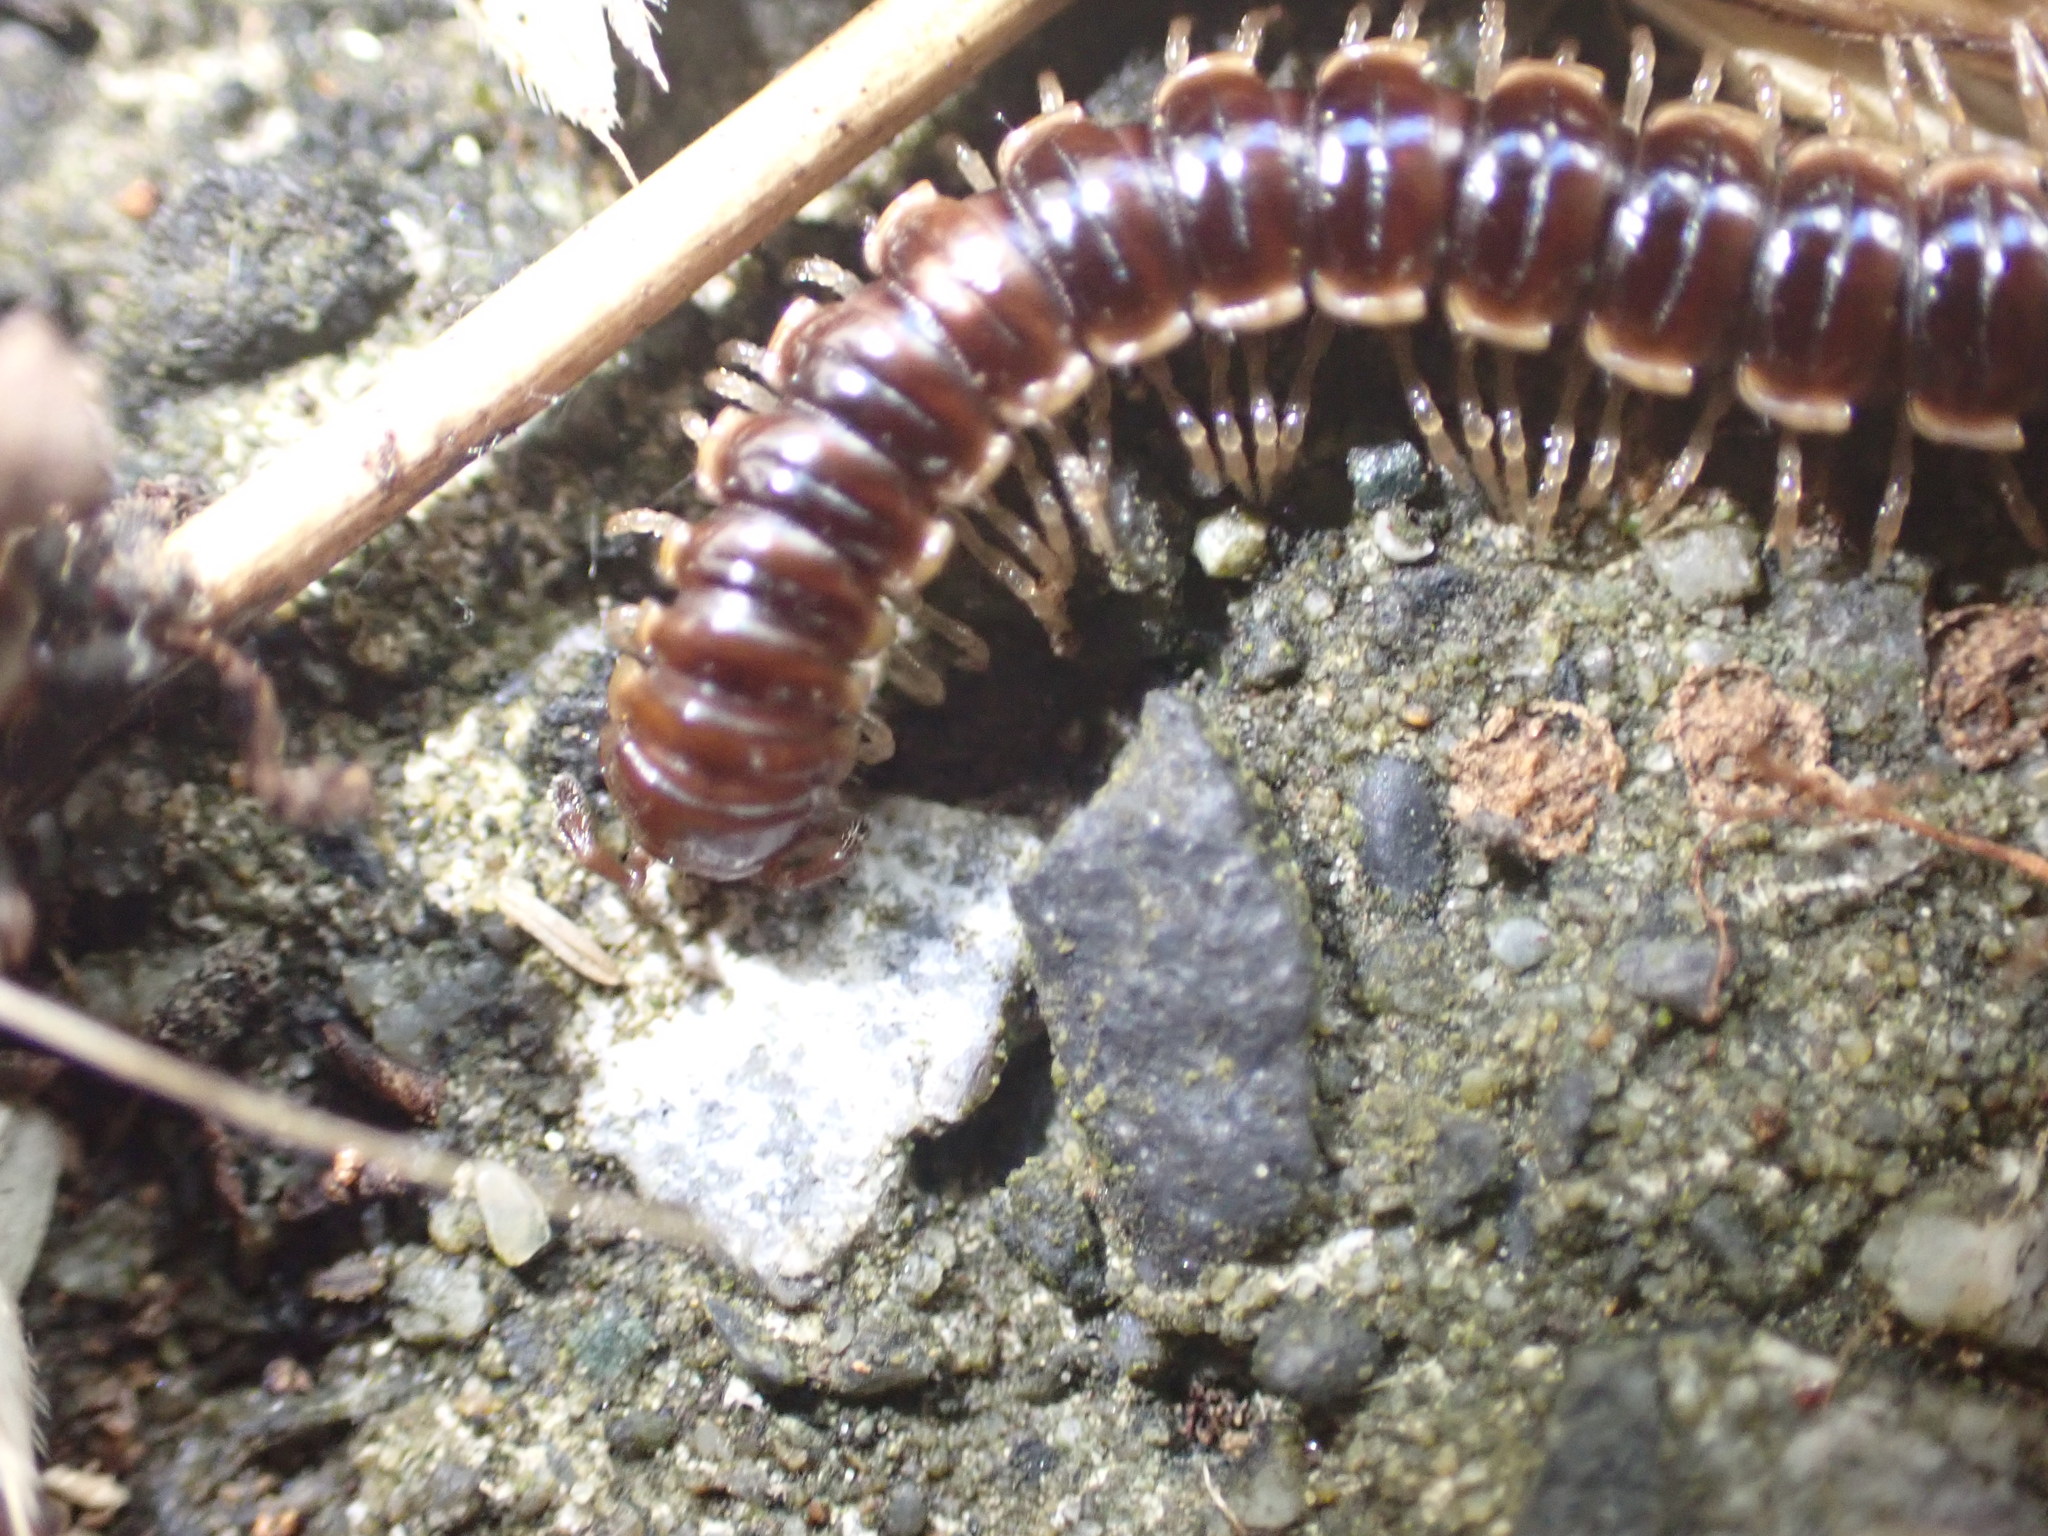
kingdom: Animalia
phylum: Arthropoda
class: Diplopoda
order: Polydesmida
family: Paradoxosomatidae
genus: Oxidus
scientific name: Oxidus gracilis
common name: Greenhouse millipede
